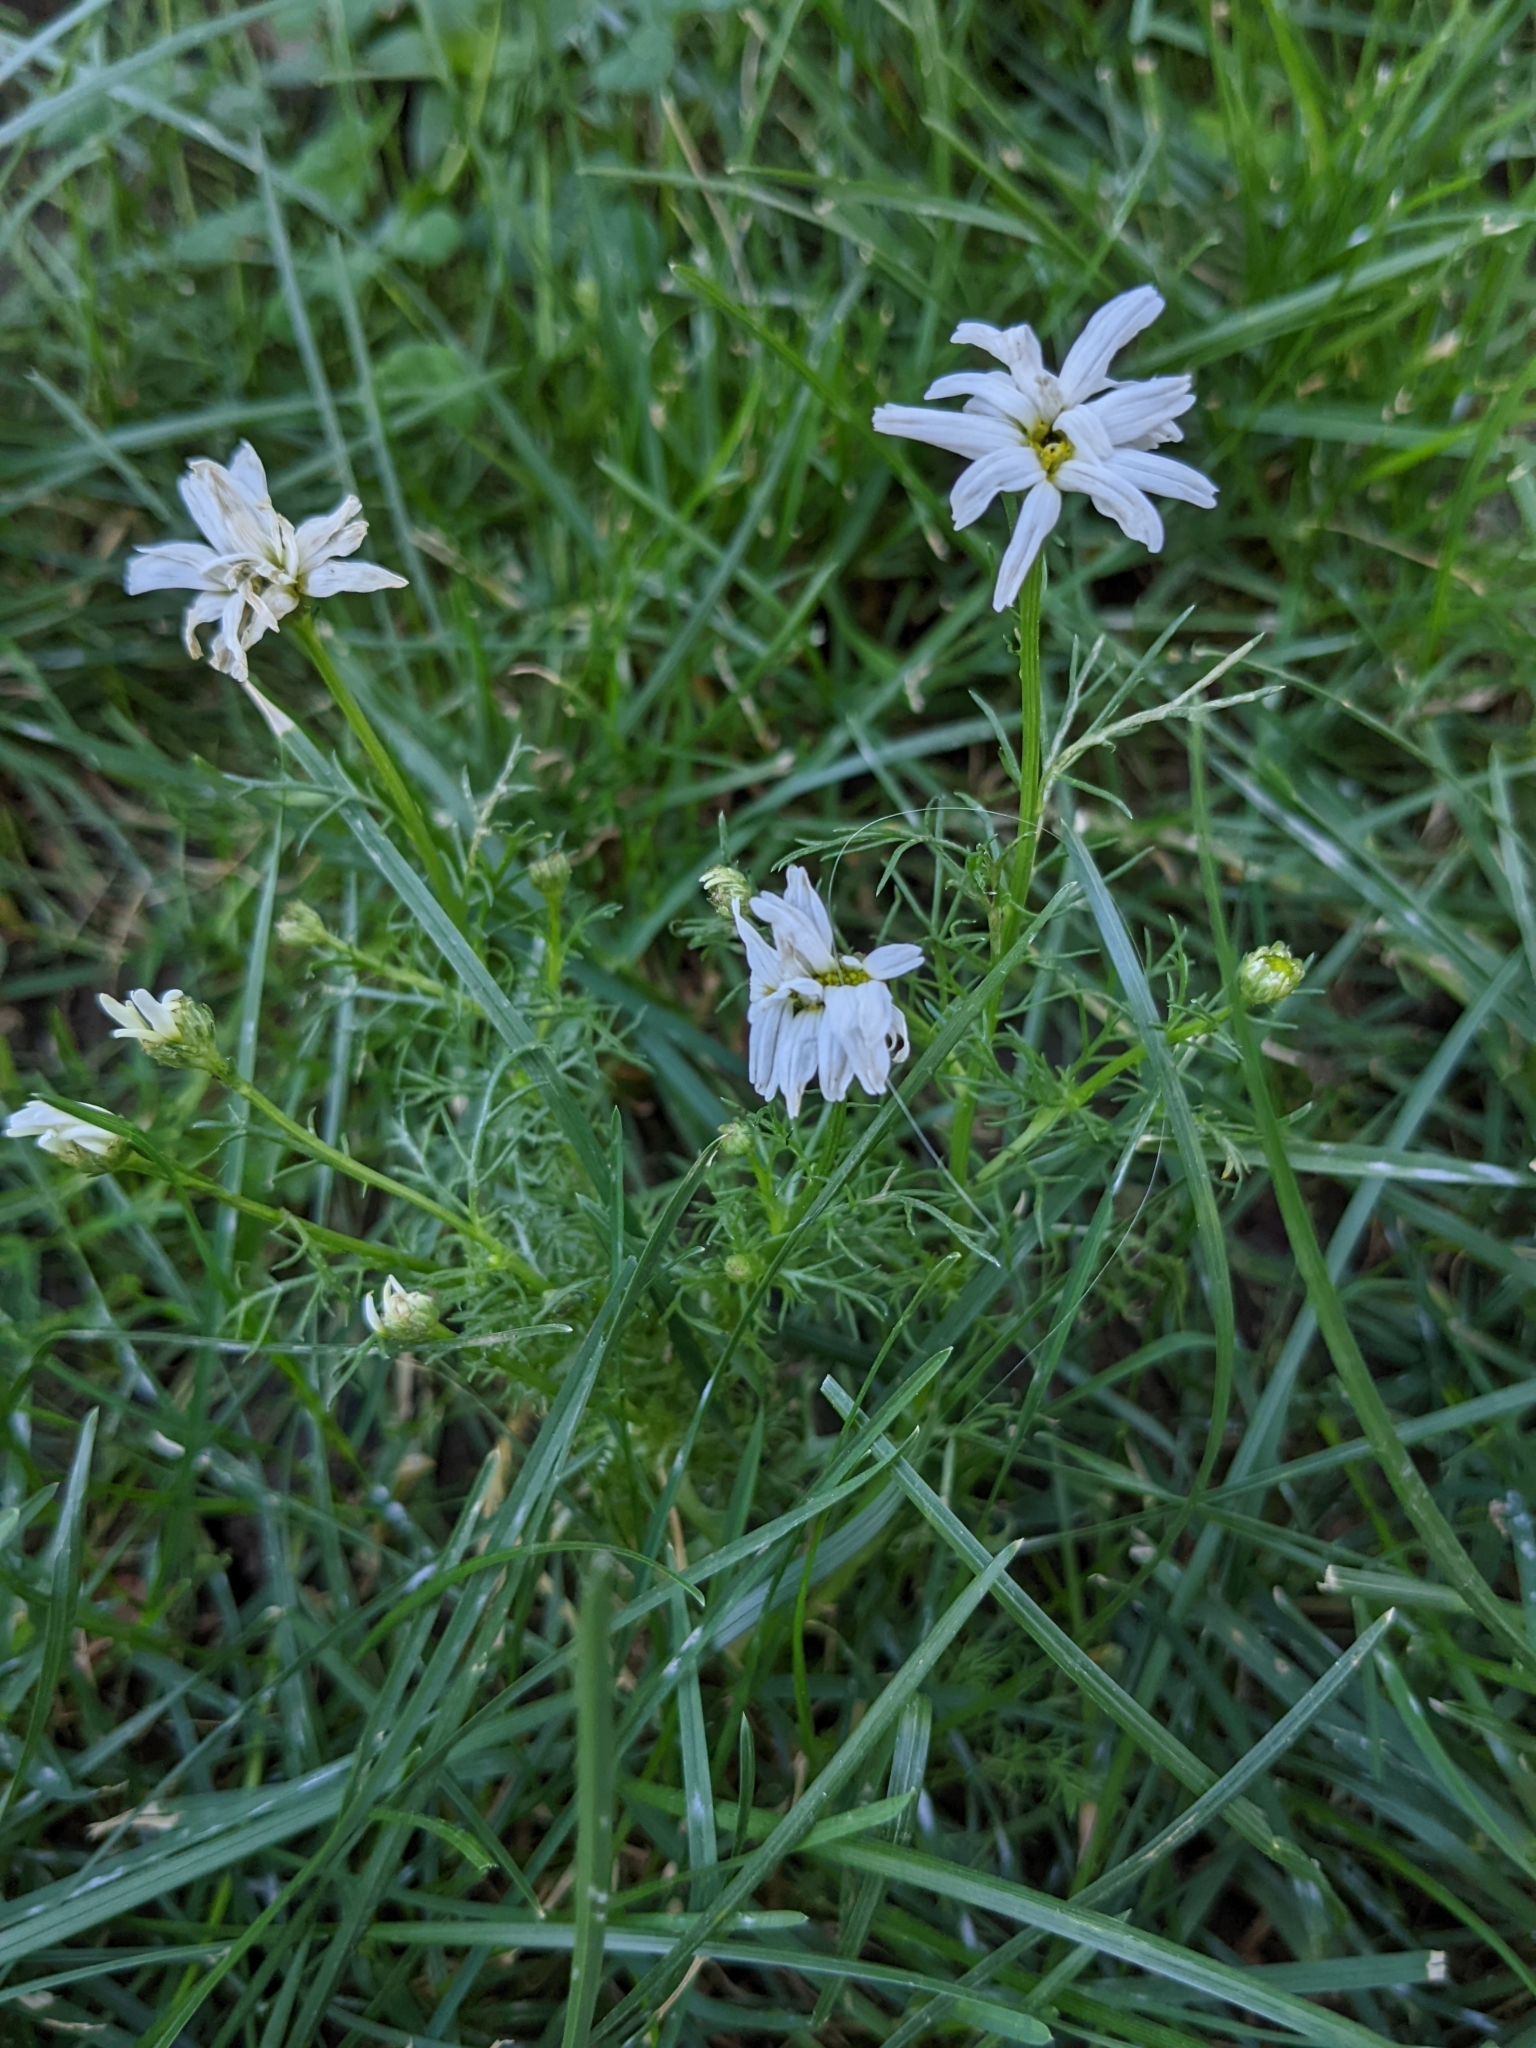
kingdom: Plantae
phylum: Tracheophyta
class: Magnoliopsida
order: Asterales
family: Asteraceae
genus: Tripleurospermum
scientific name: Tripleurospermum inodorum
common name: Scentless mayweed
